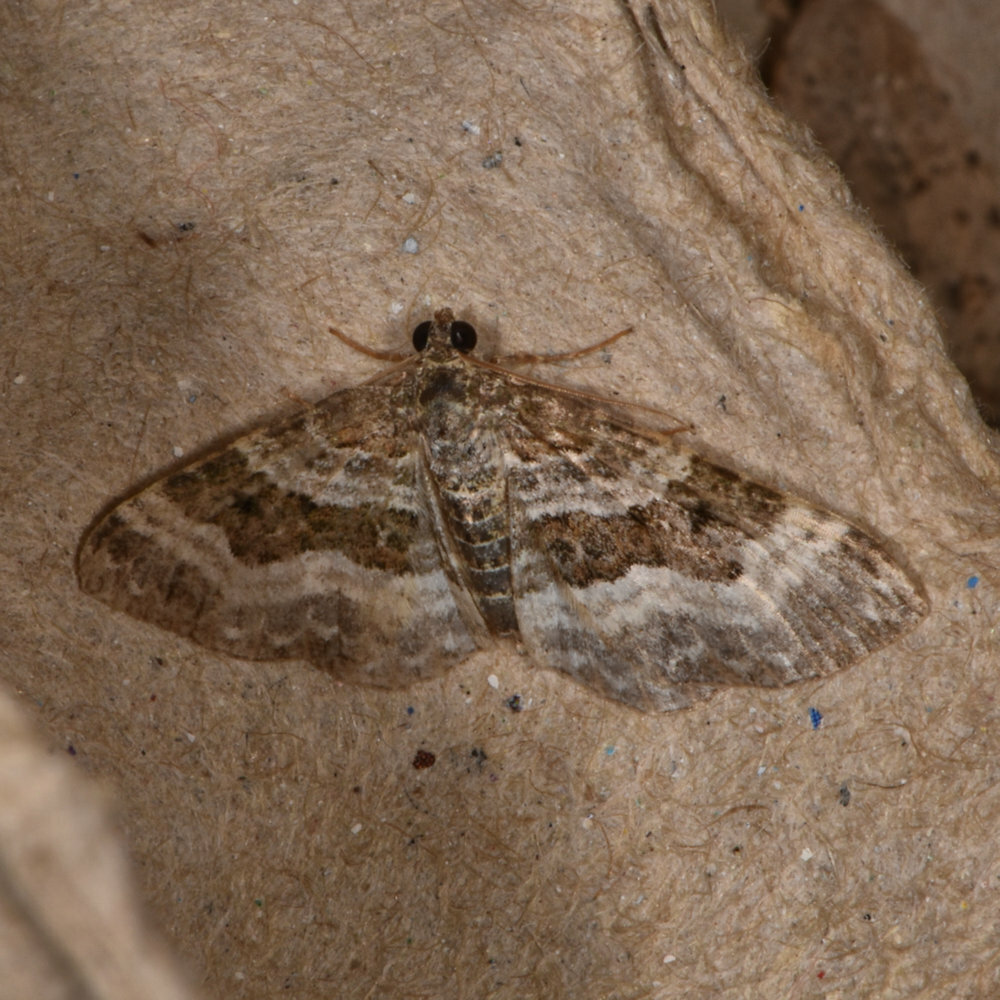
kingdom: Animalia
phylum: Arthropoda
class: Insecta
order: Lepidoptera
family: Geometridae
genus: Epirrhoe
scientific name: Epirrhoe alternata
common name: Common carpet
